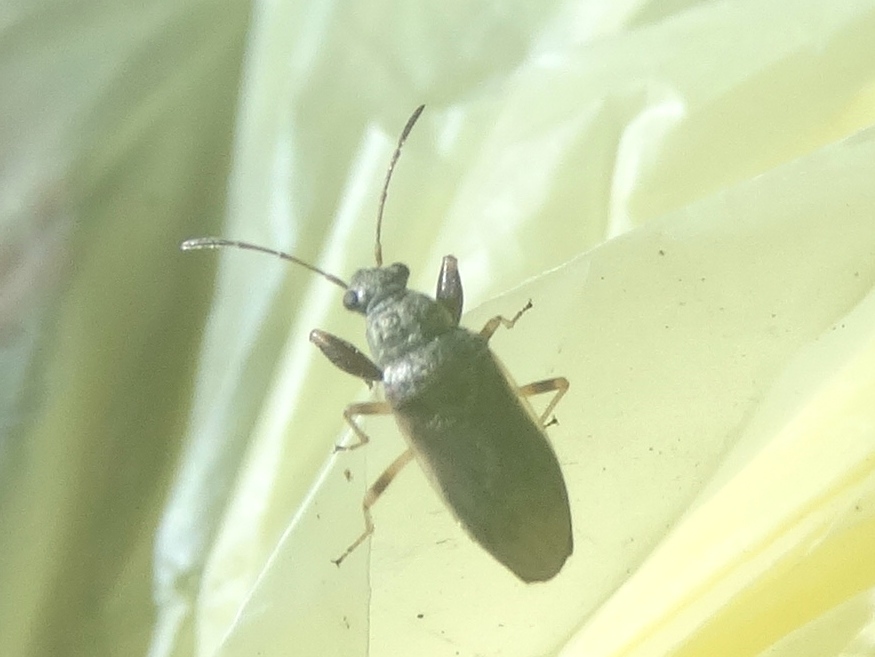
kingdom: Animalia
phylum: Arthropoda
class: Insecta
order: Hemiptera
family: Rhyparochromidae
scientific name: Rhyparochromidae
